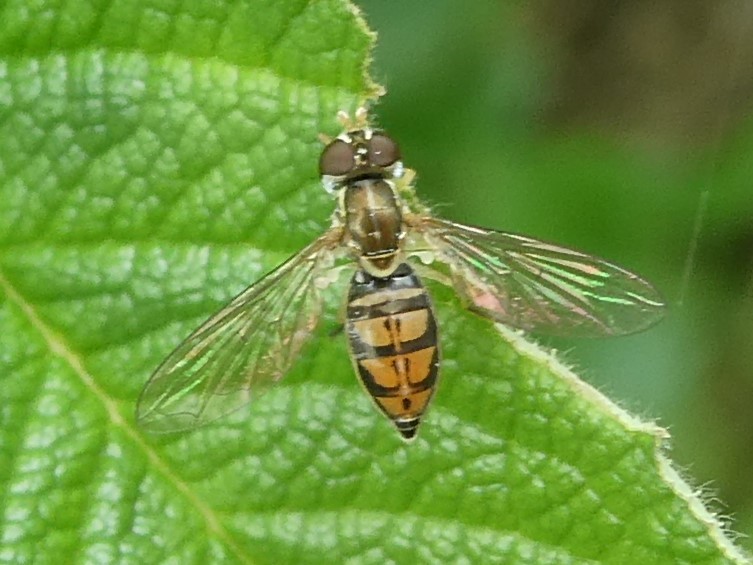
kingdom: Animalia
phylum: Arthropoda
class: Insecta
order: Diptera
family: Syrphidae
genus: Toxomerus
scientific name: Toxomerus marginatus
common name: Syrphid fly
